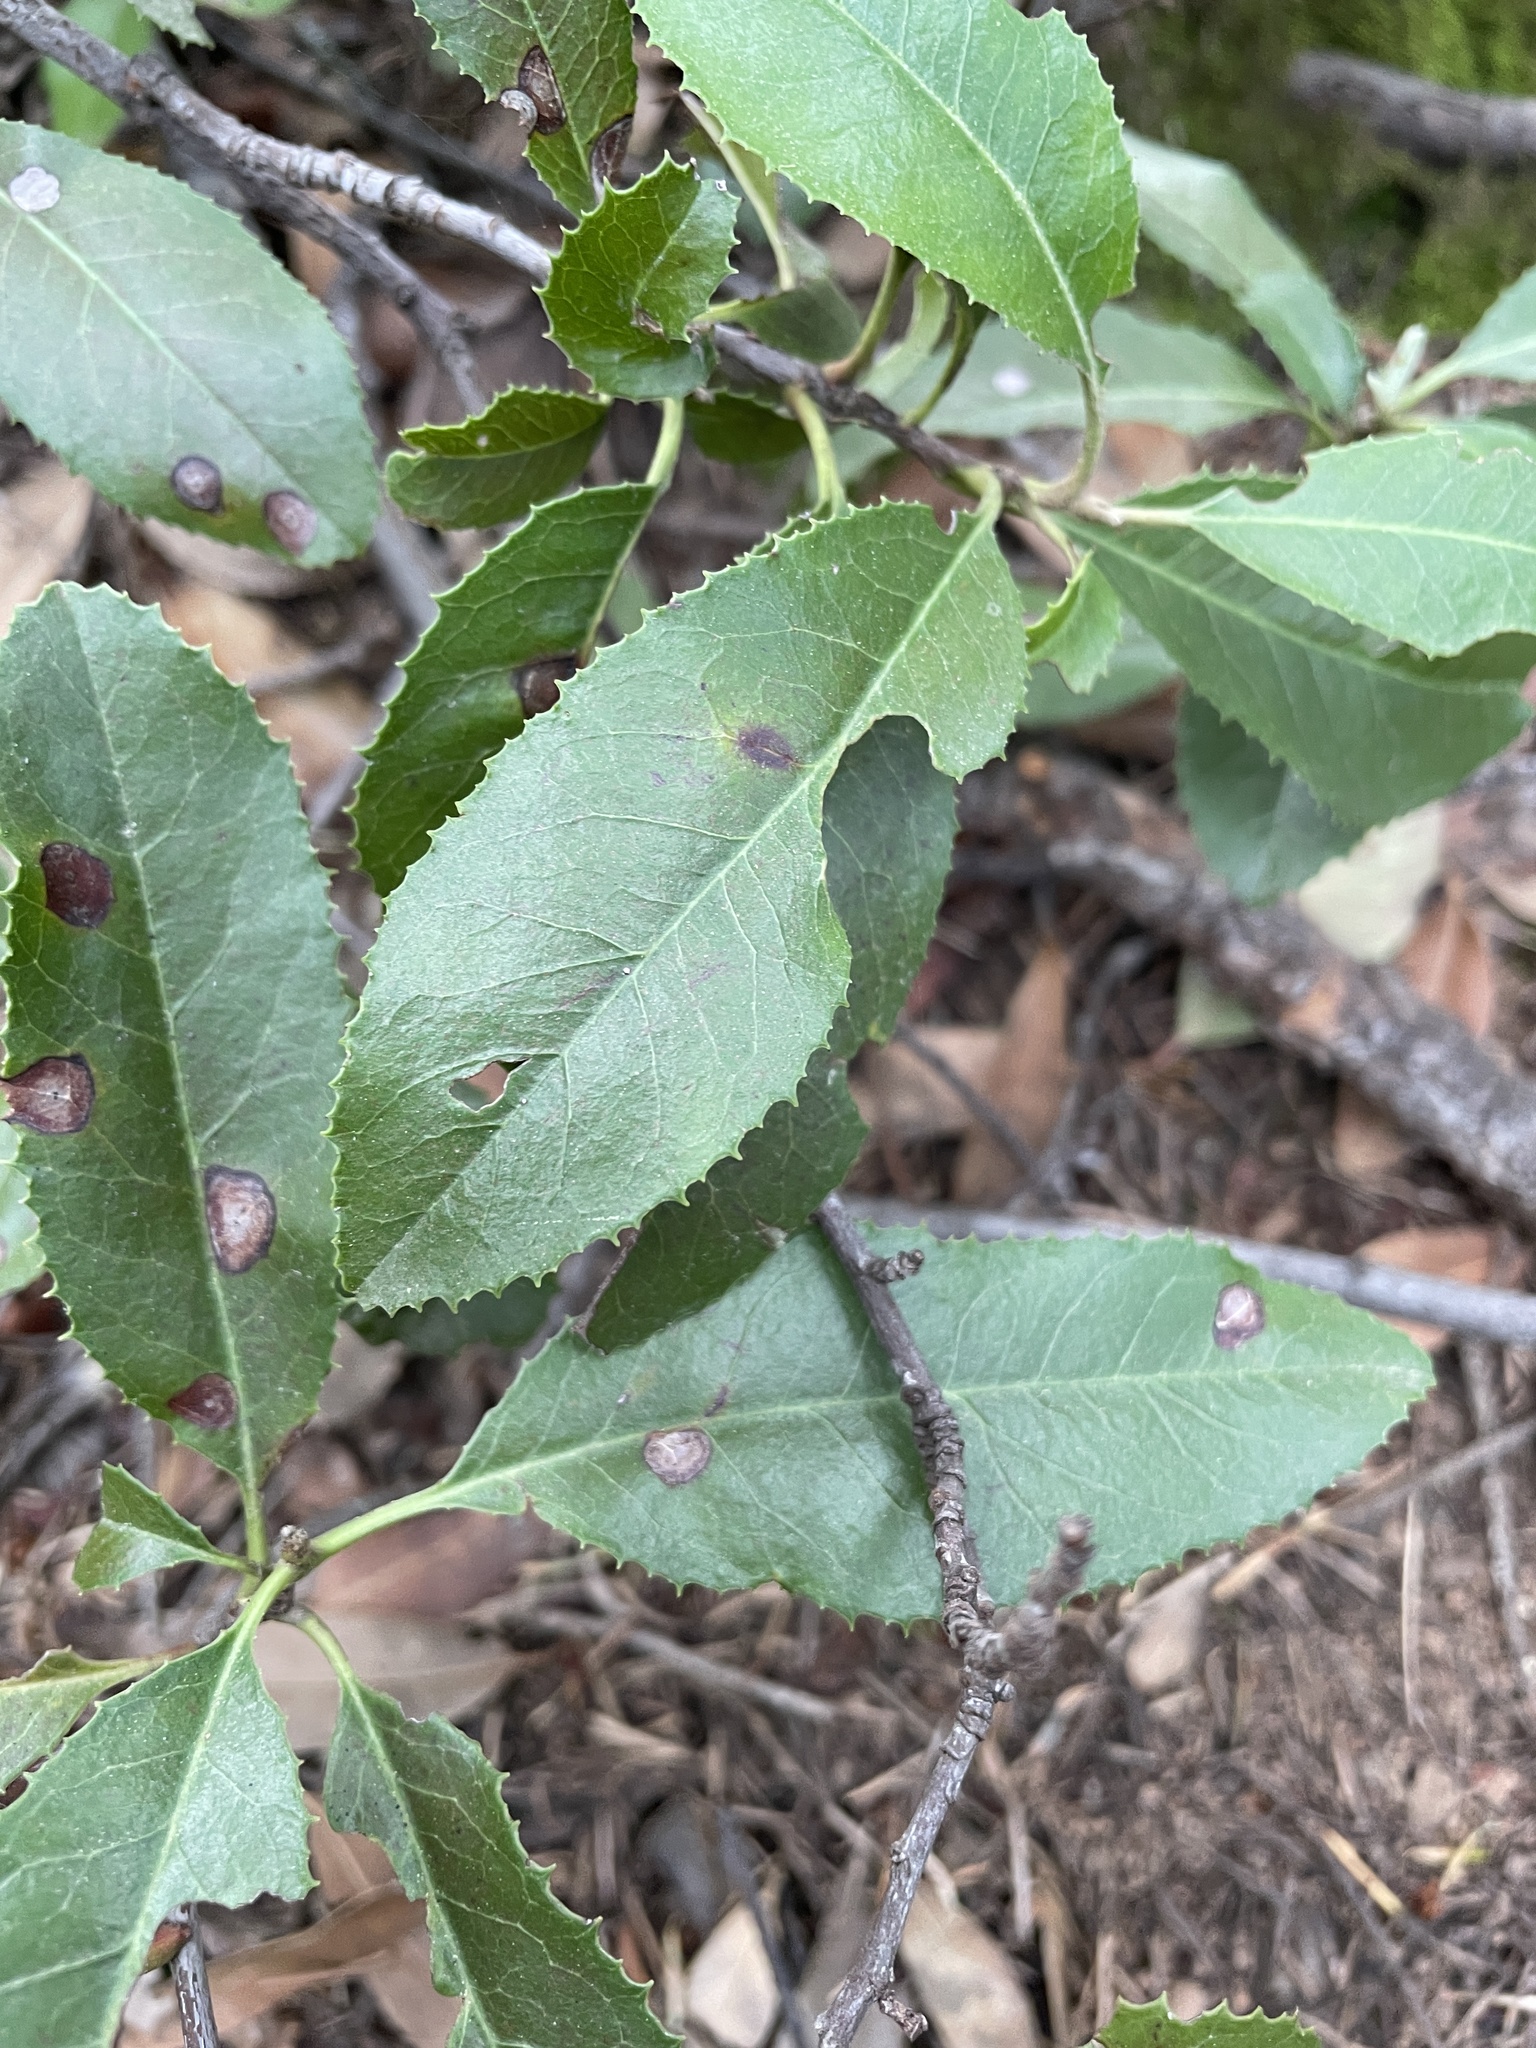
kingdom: Plantae
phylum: Tracheophyta
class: Magnoliopsida
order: Rosales
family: Rosaceae
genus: Heteromeles
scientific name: Heteromeles arbutifolia
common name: California-holly
